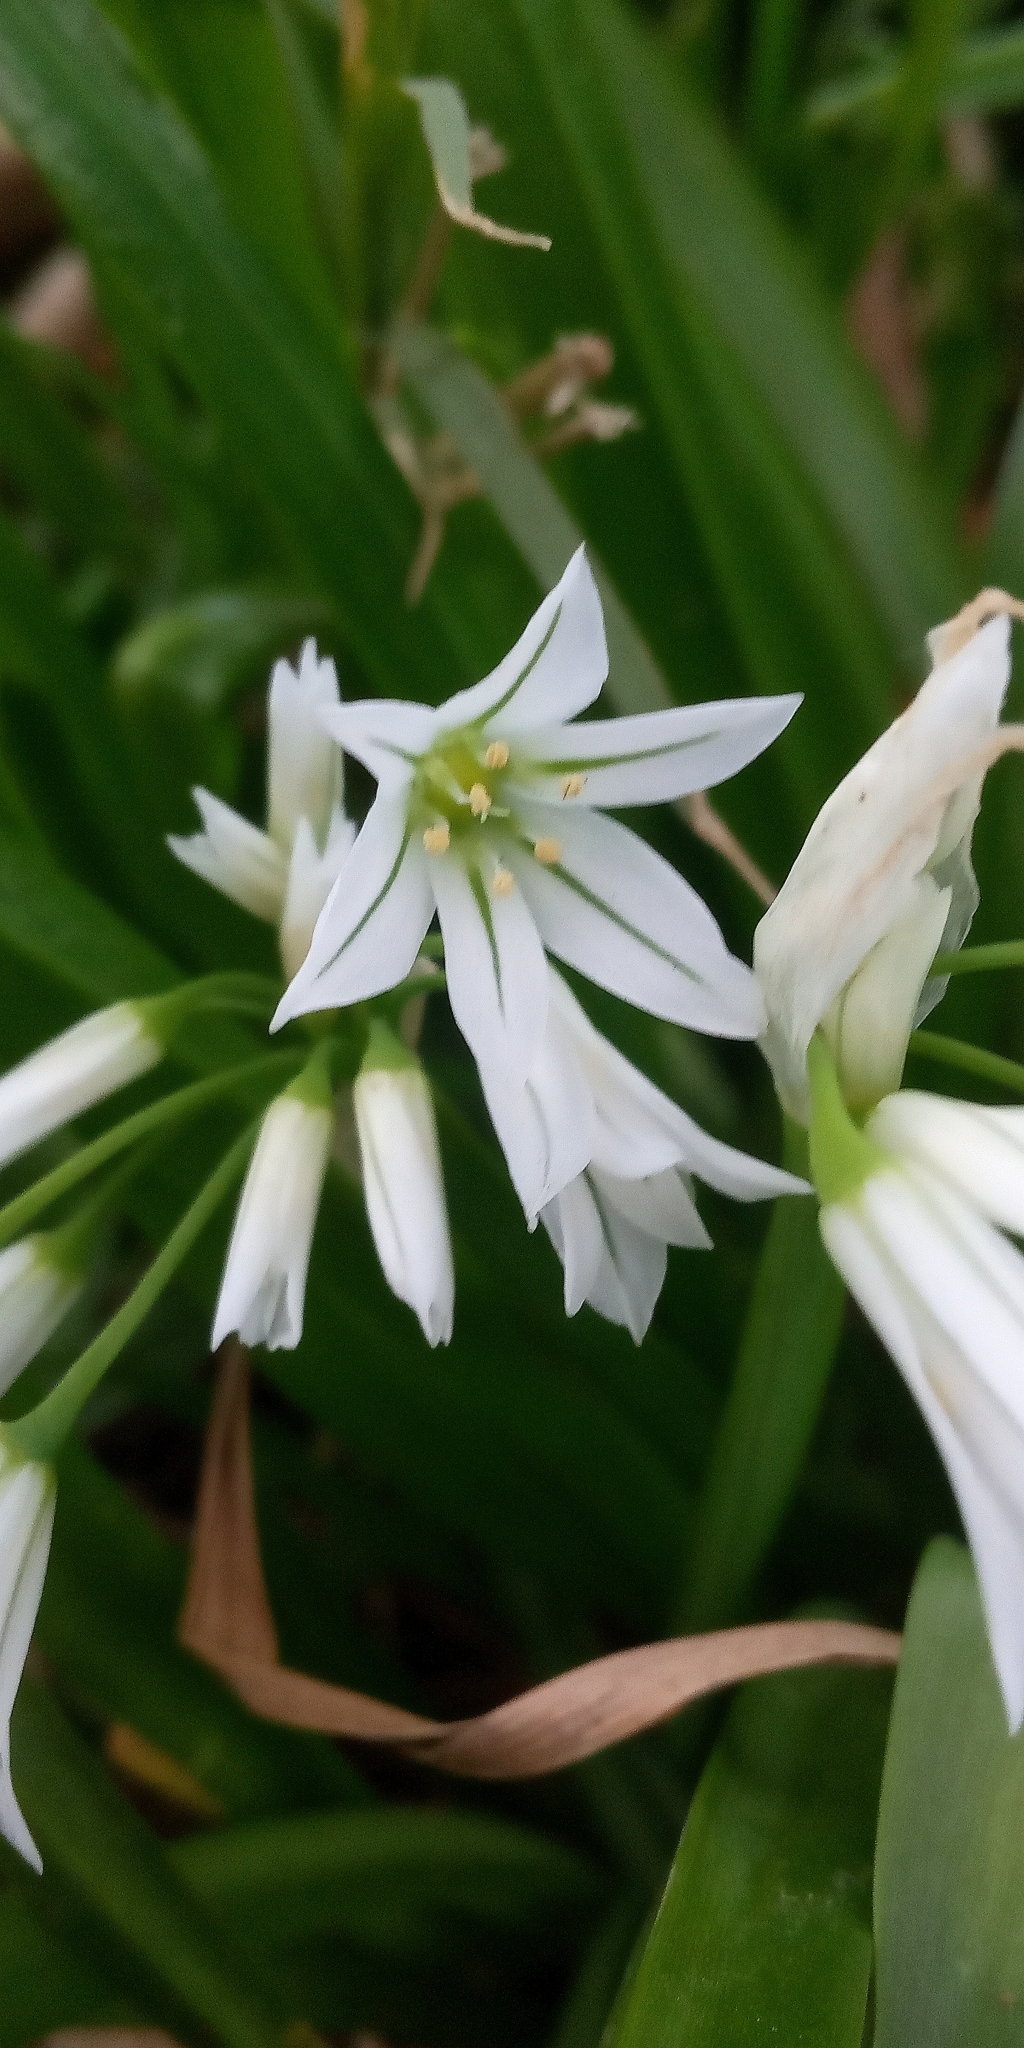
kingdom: Plantae
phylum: Tracheophyta
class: Liliopsida
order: Asparagales
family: Amaryllidaceae
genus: Allium
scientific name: Allium triquetrum
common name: Three-cornered garlic
